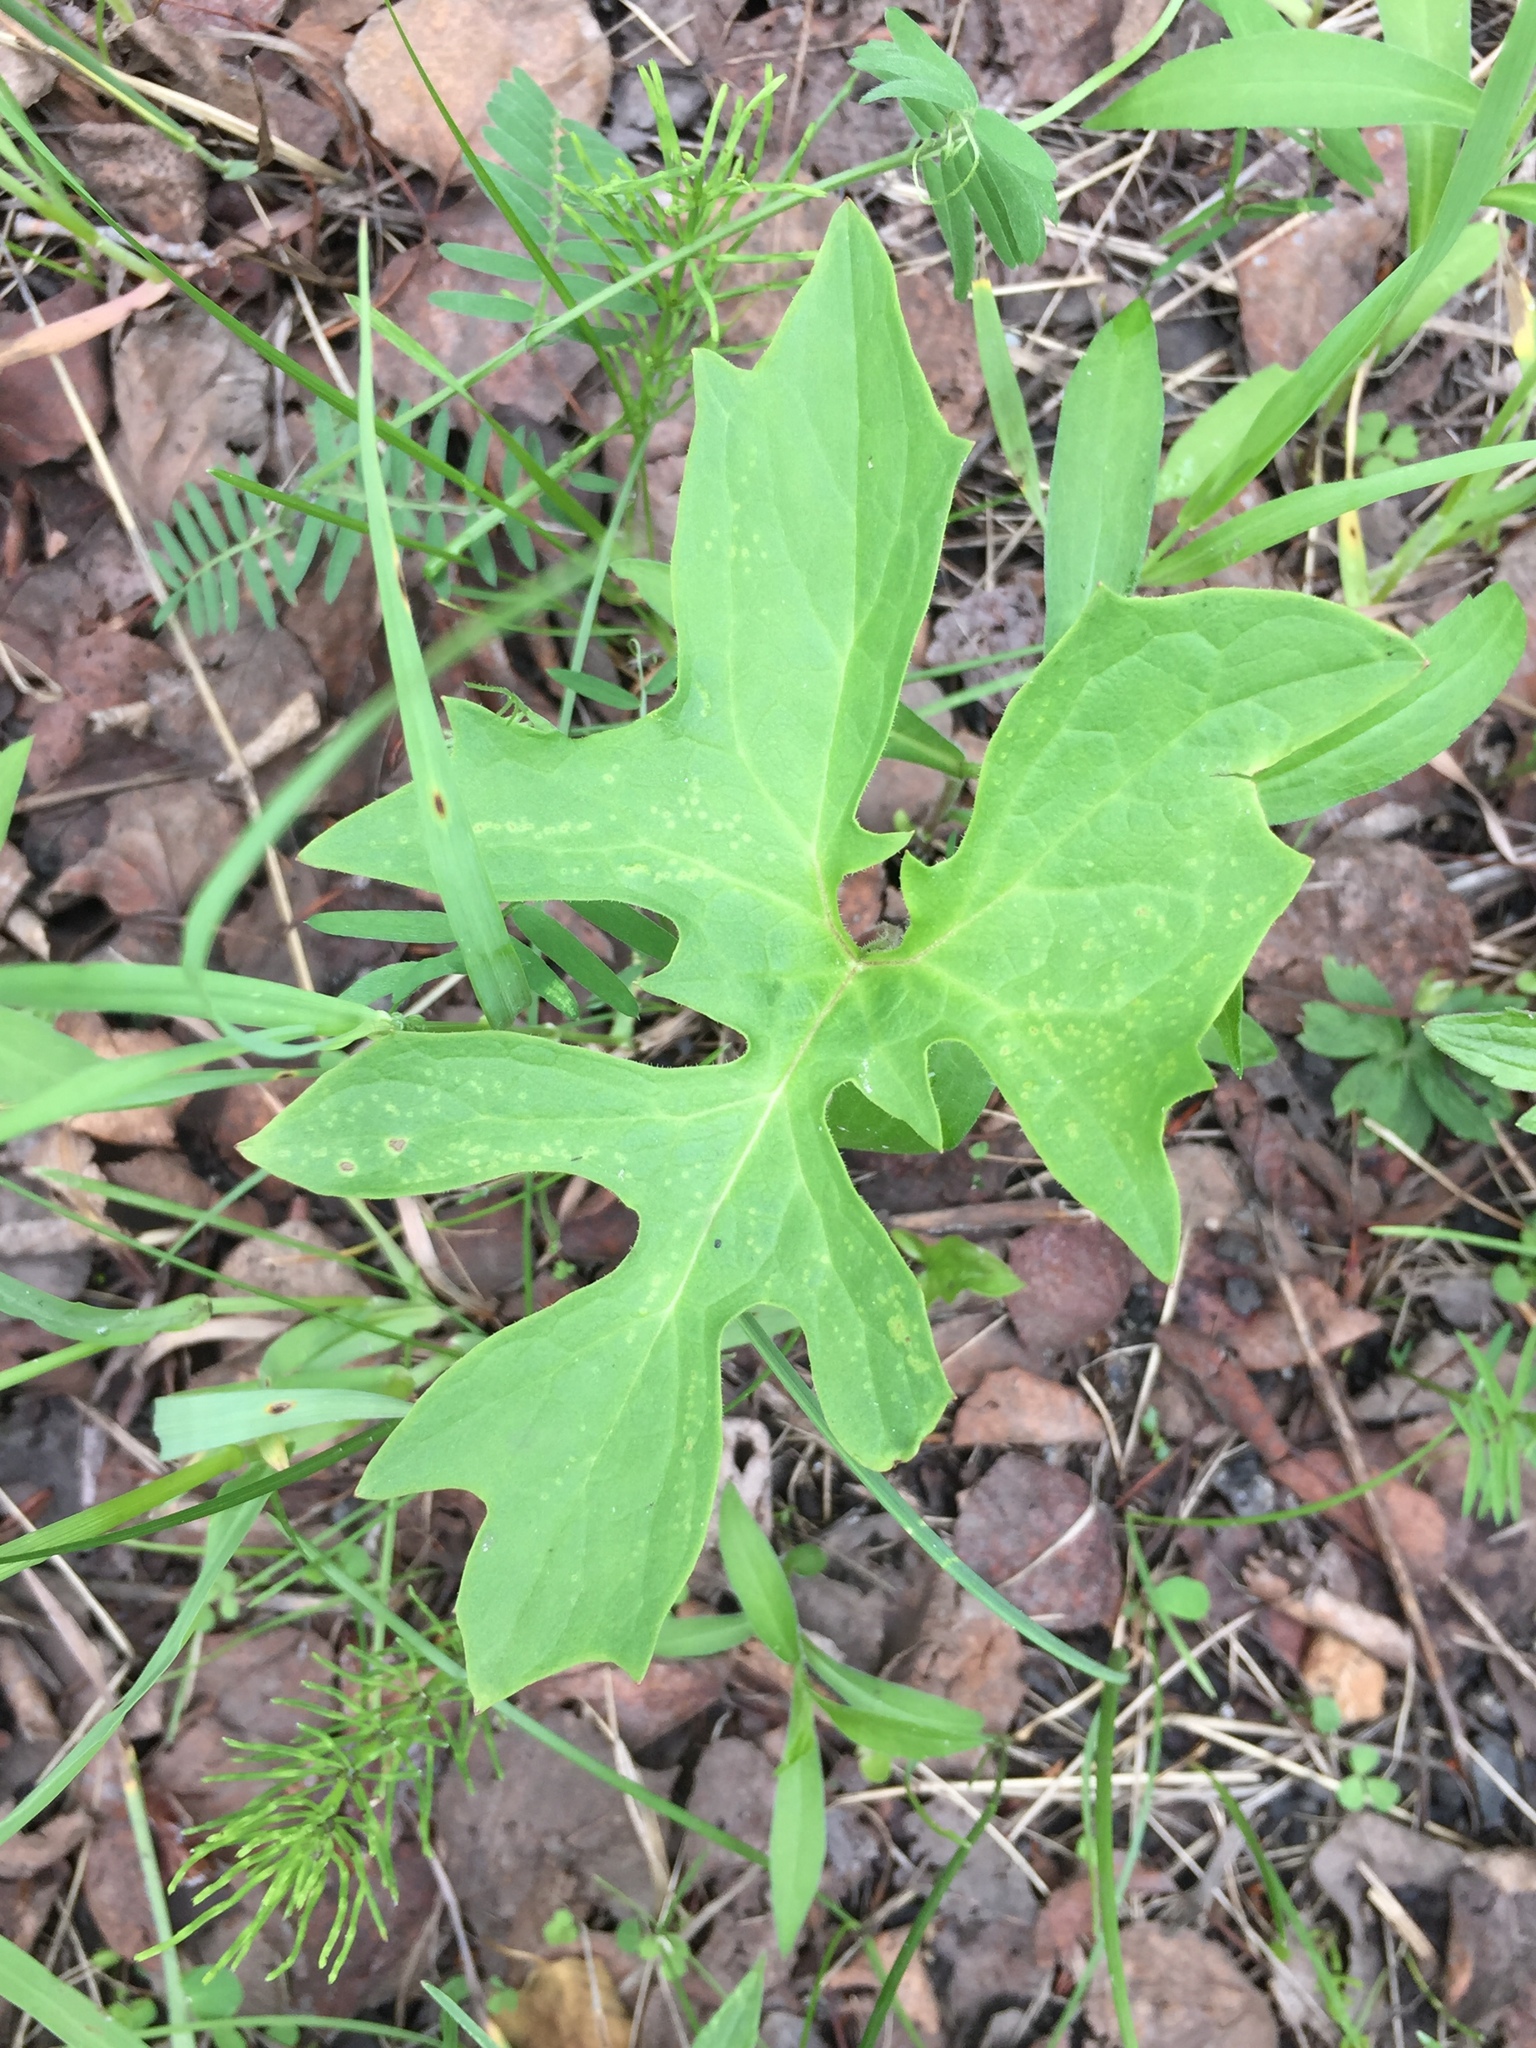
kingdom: Plantae
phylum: Tracheophyta
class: Magnoliopsida
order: Asterales
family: Asteraceae
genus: Nabalus
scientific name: Nabalus albus
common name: White rattlesnakeroot
